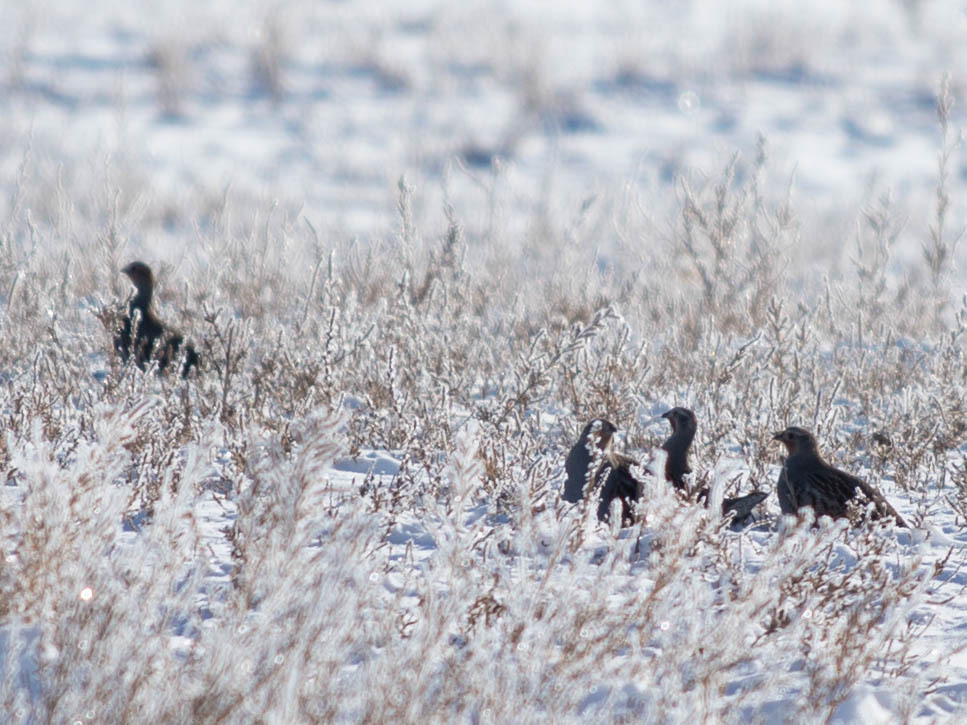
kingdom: Animalia
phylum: Chordata
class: Aves
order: Galliformes
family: Phasianidae
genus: Perdix
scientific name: Perdix perdix
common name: Grey partridge
